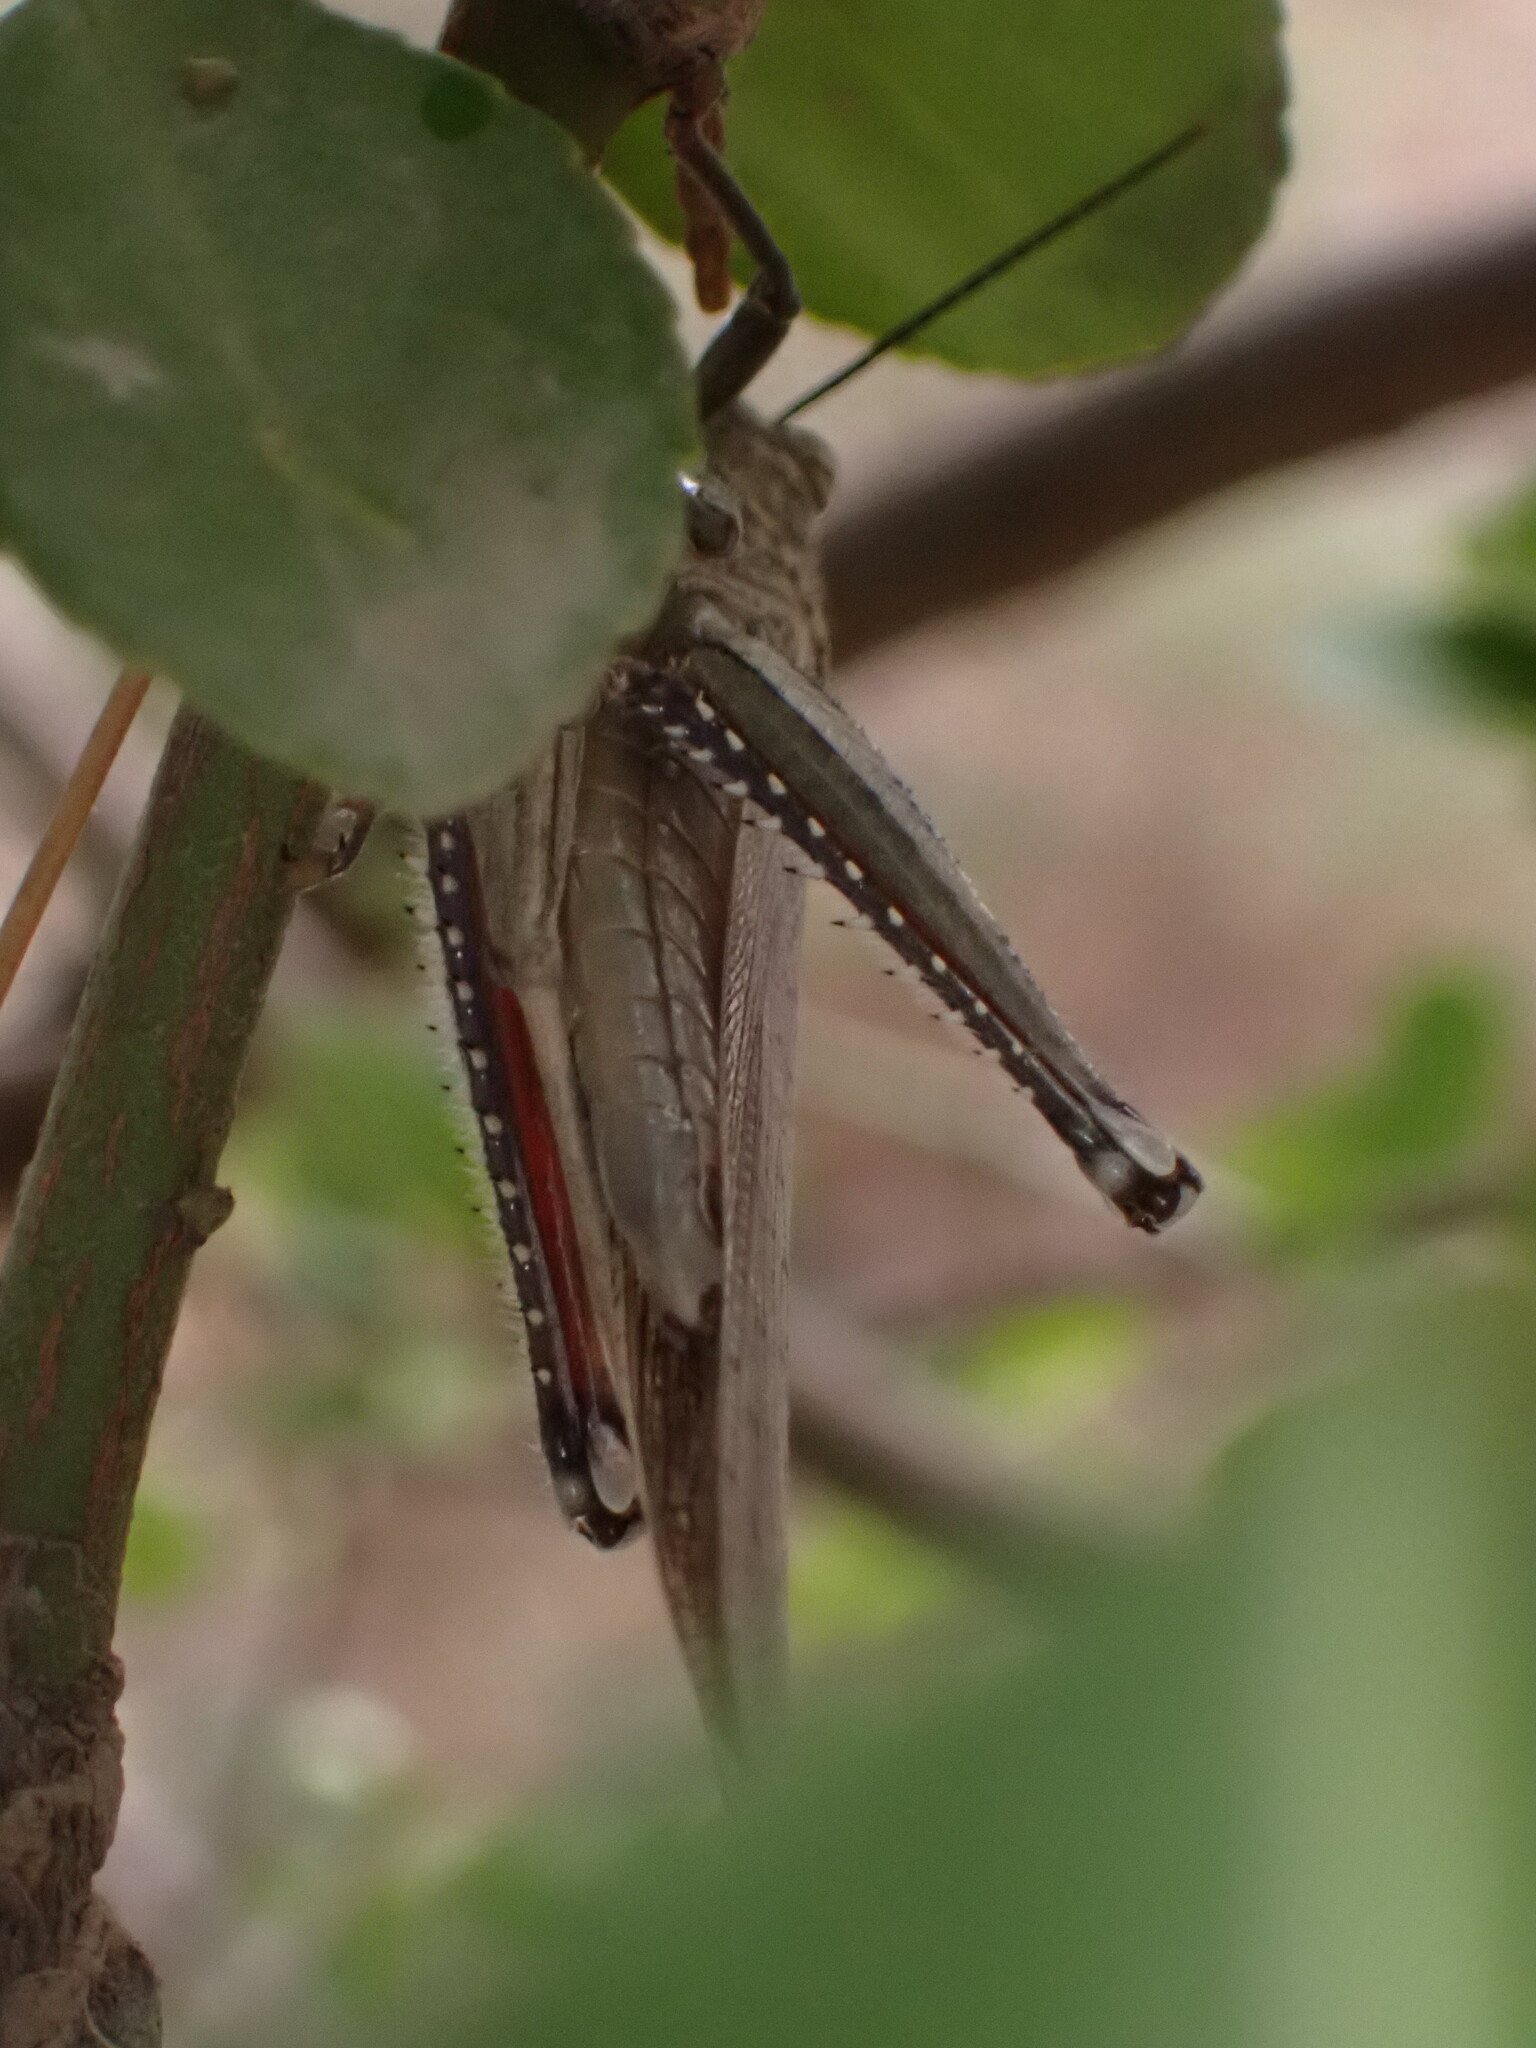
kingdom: Animalia
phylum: Arthropoda
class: Insecta
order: Orthoptera
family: Acrididae
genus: Anacridium
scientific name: Anacridium aegyptium
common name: Egyptian grasshopper
